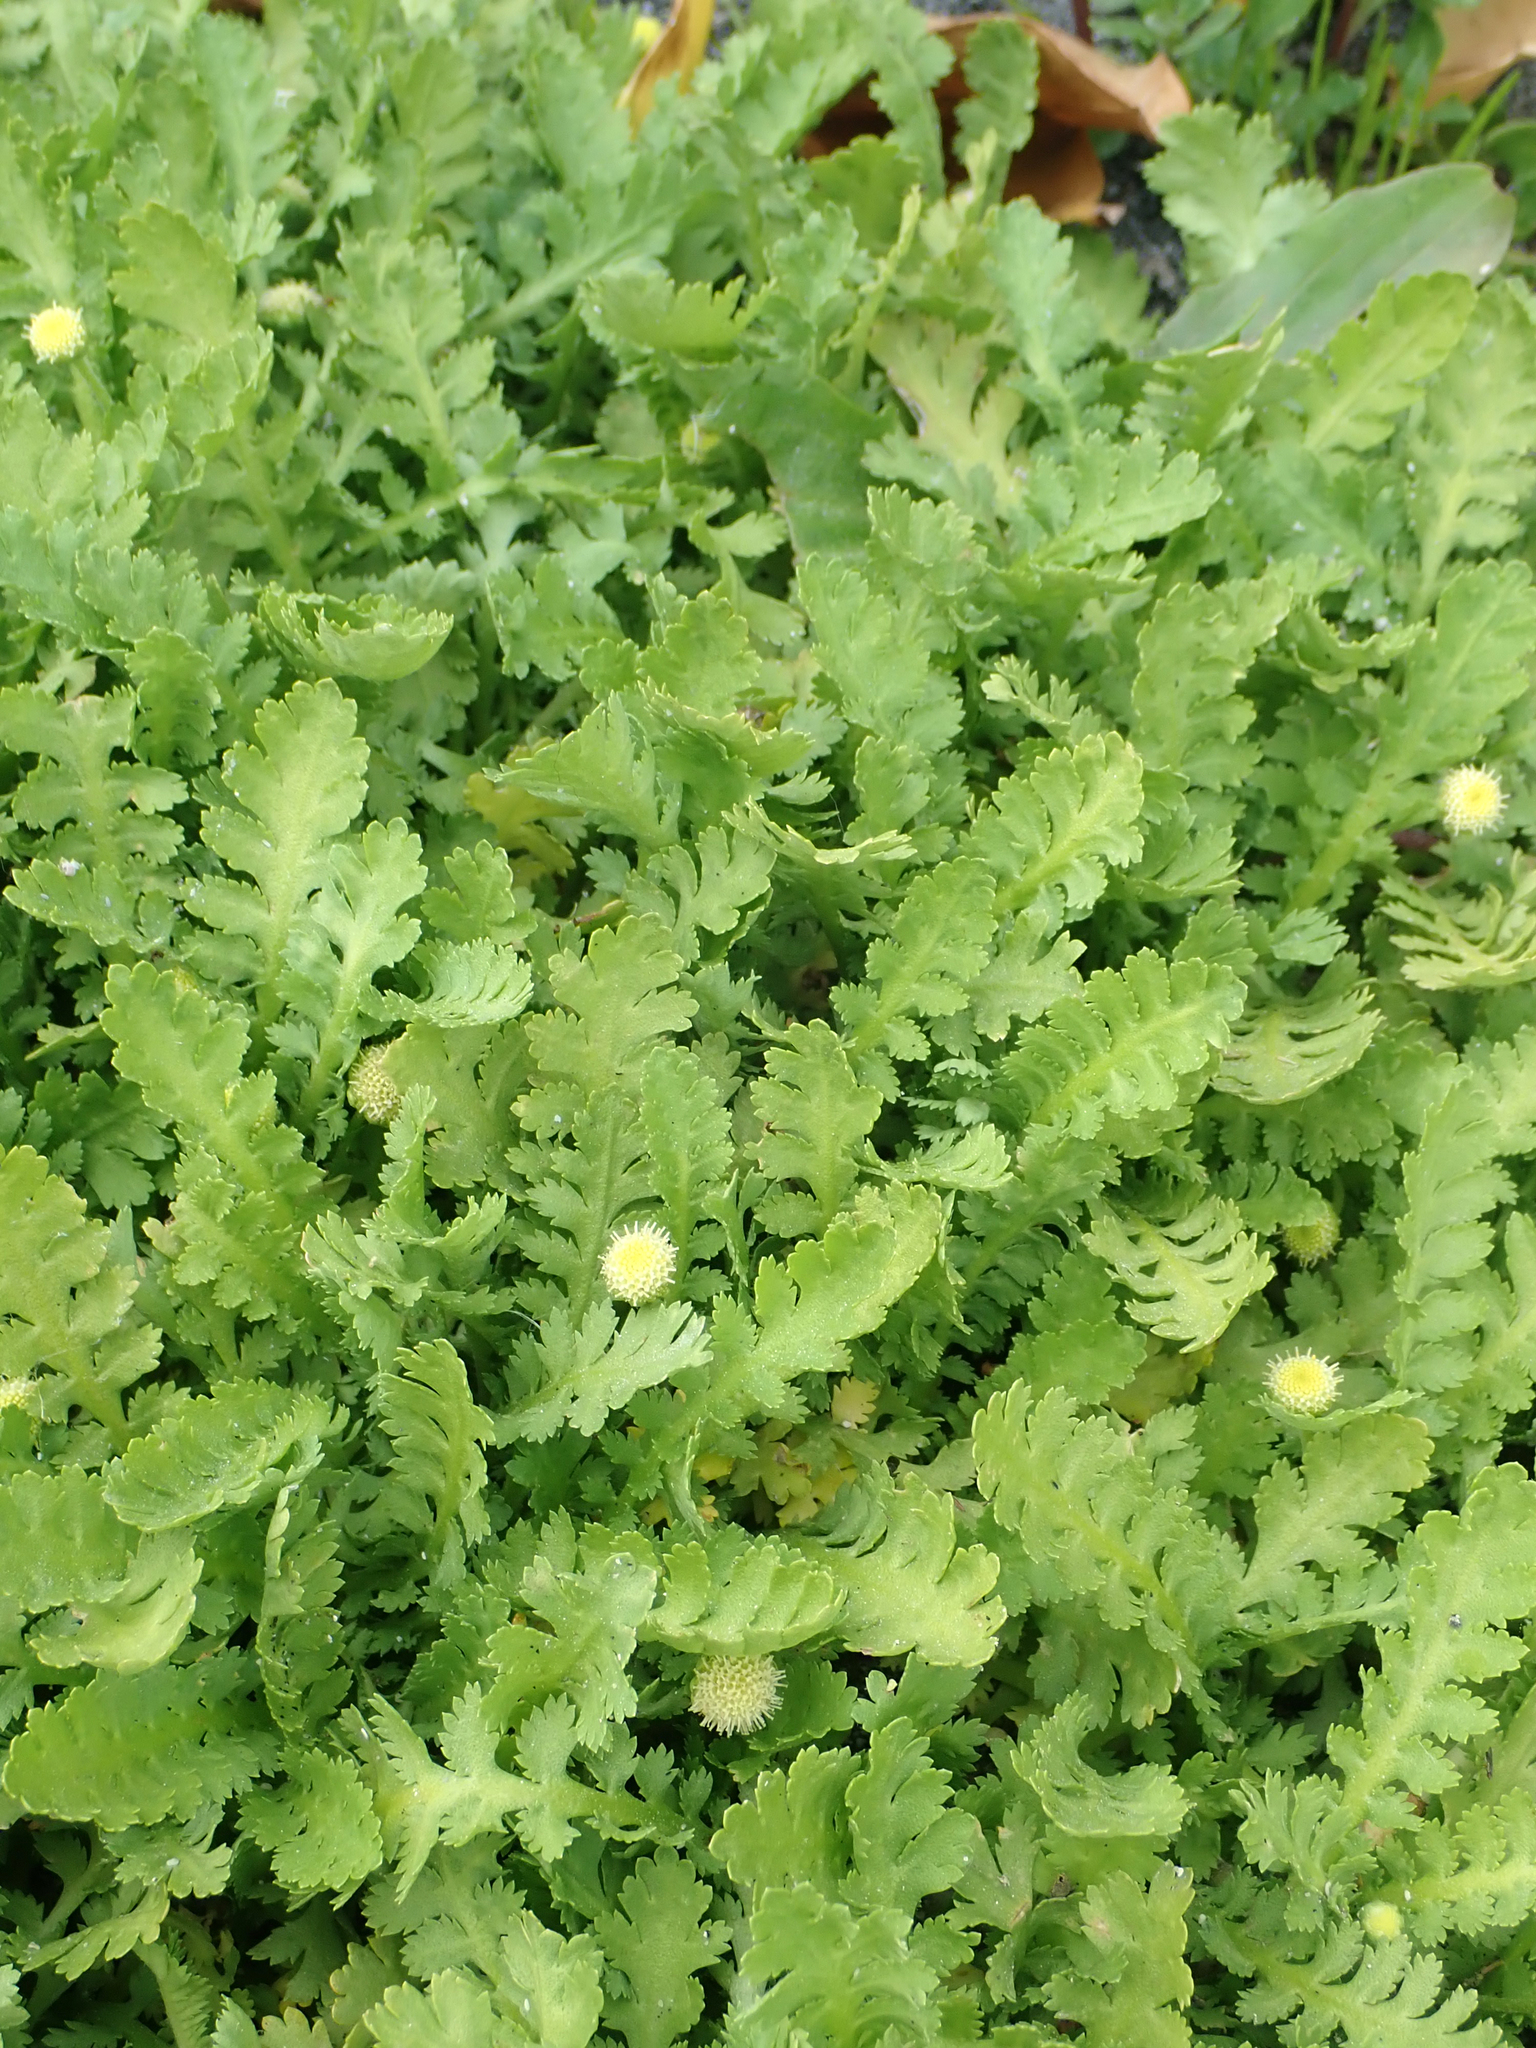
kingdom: Plantae
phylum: Tracheophyta
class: Magnoliopsida
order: Asterales
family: Asteraceae
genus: Leptinella
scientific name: Leptinella potentillina
